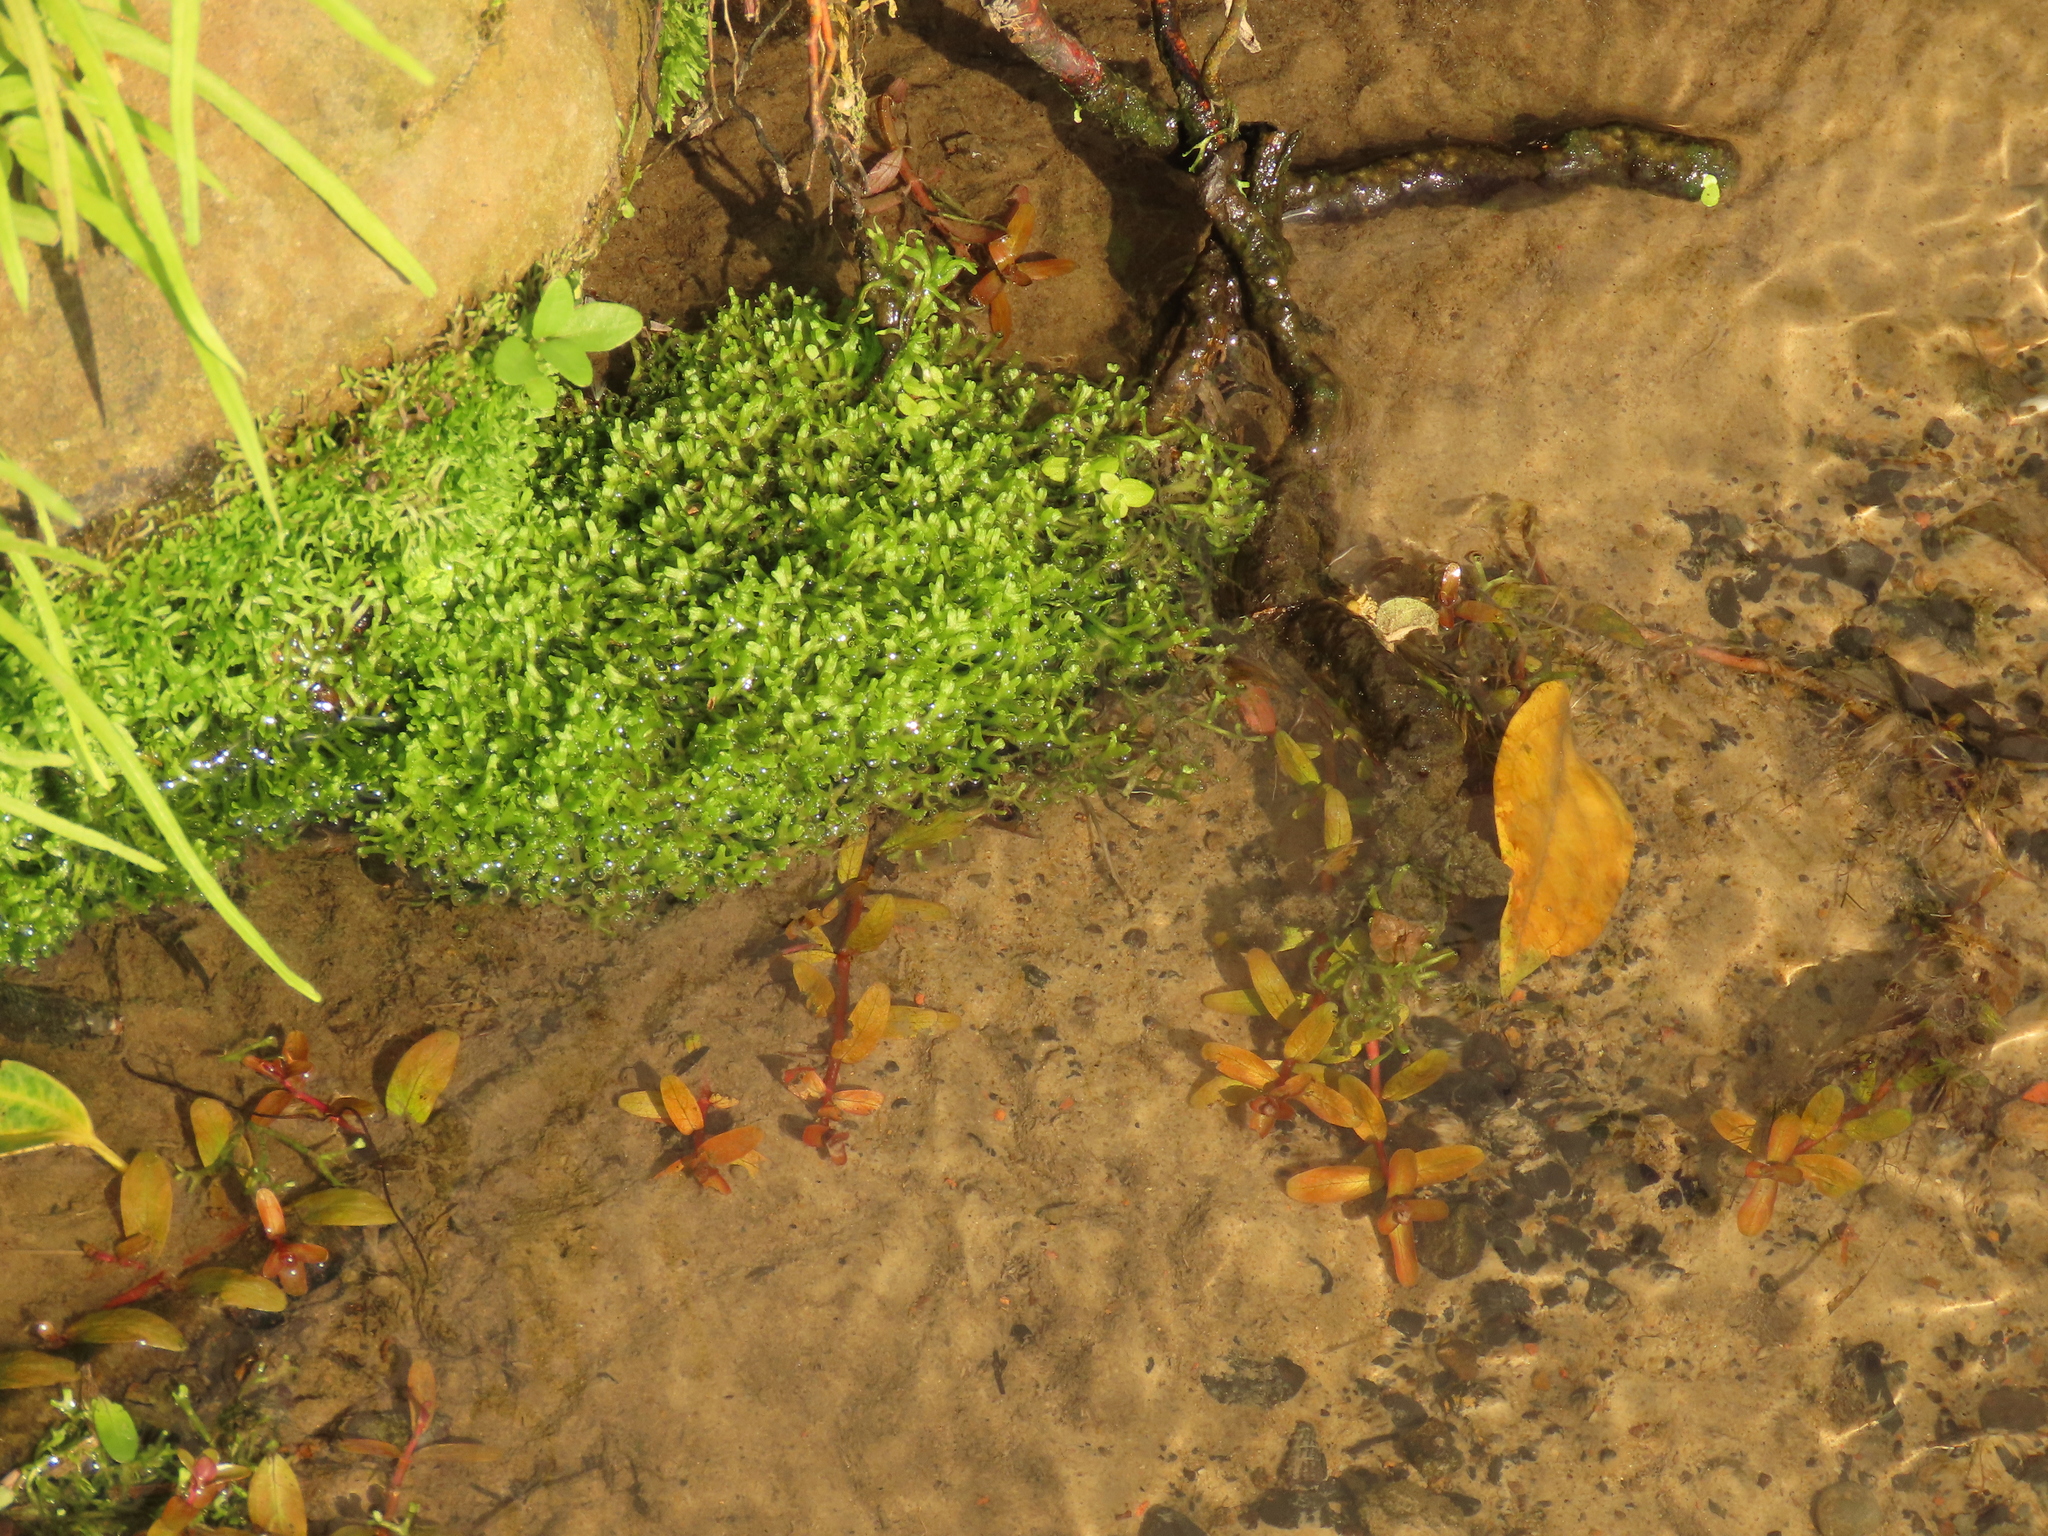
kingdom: Plantae
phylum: Marchantiophyta
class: Marchantiopsida
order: Marchantiales
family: Ricciaceae
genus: Riccia
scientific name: Riccia fluitans
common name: Floating crystalwort
